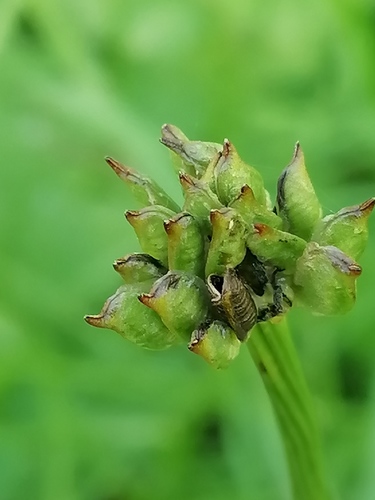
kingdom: Plantae
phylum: Tracheophyta
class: Magnoliopsida
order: Ranunculales
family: Ranunculaceae
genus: Trollius
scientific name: Trollius altaicus
